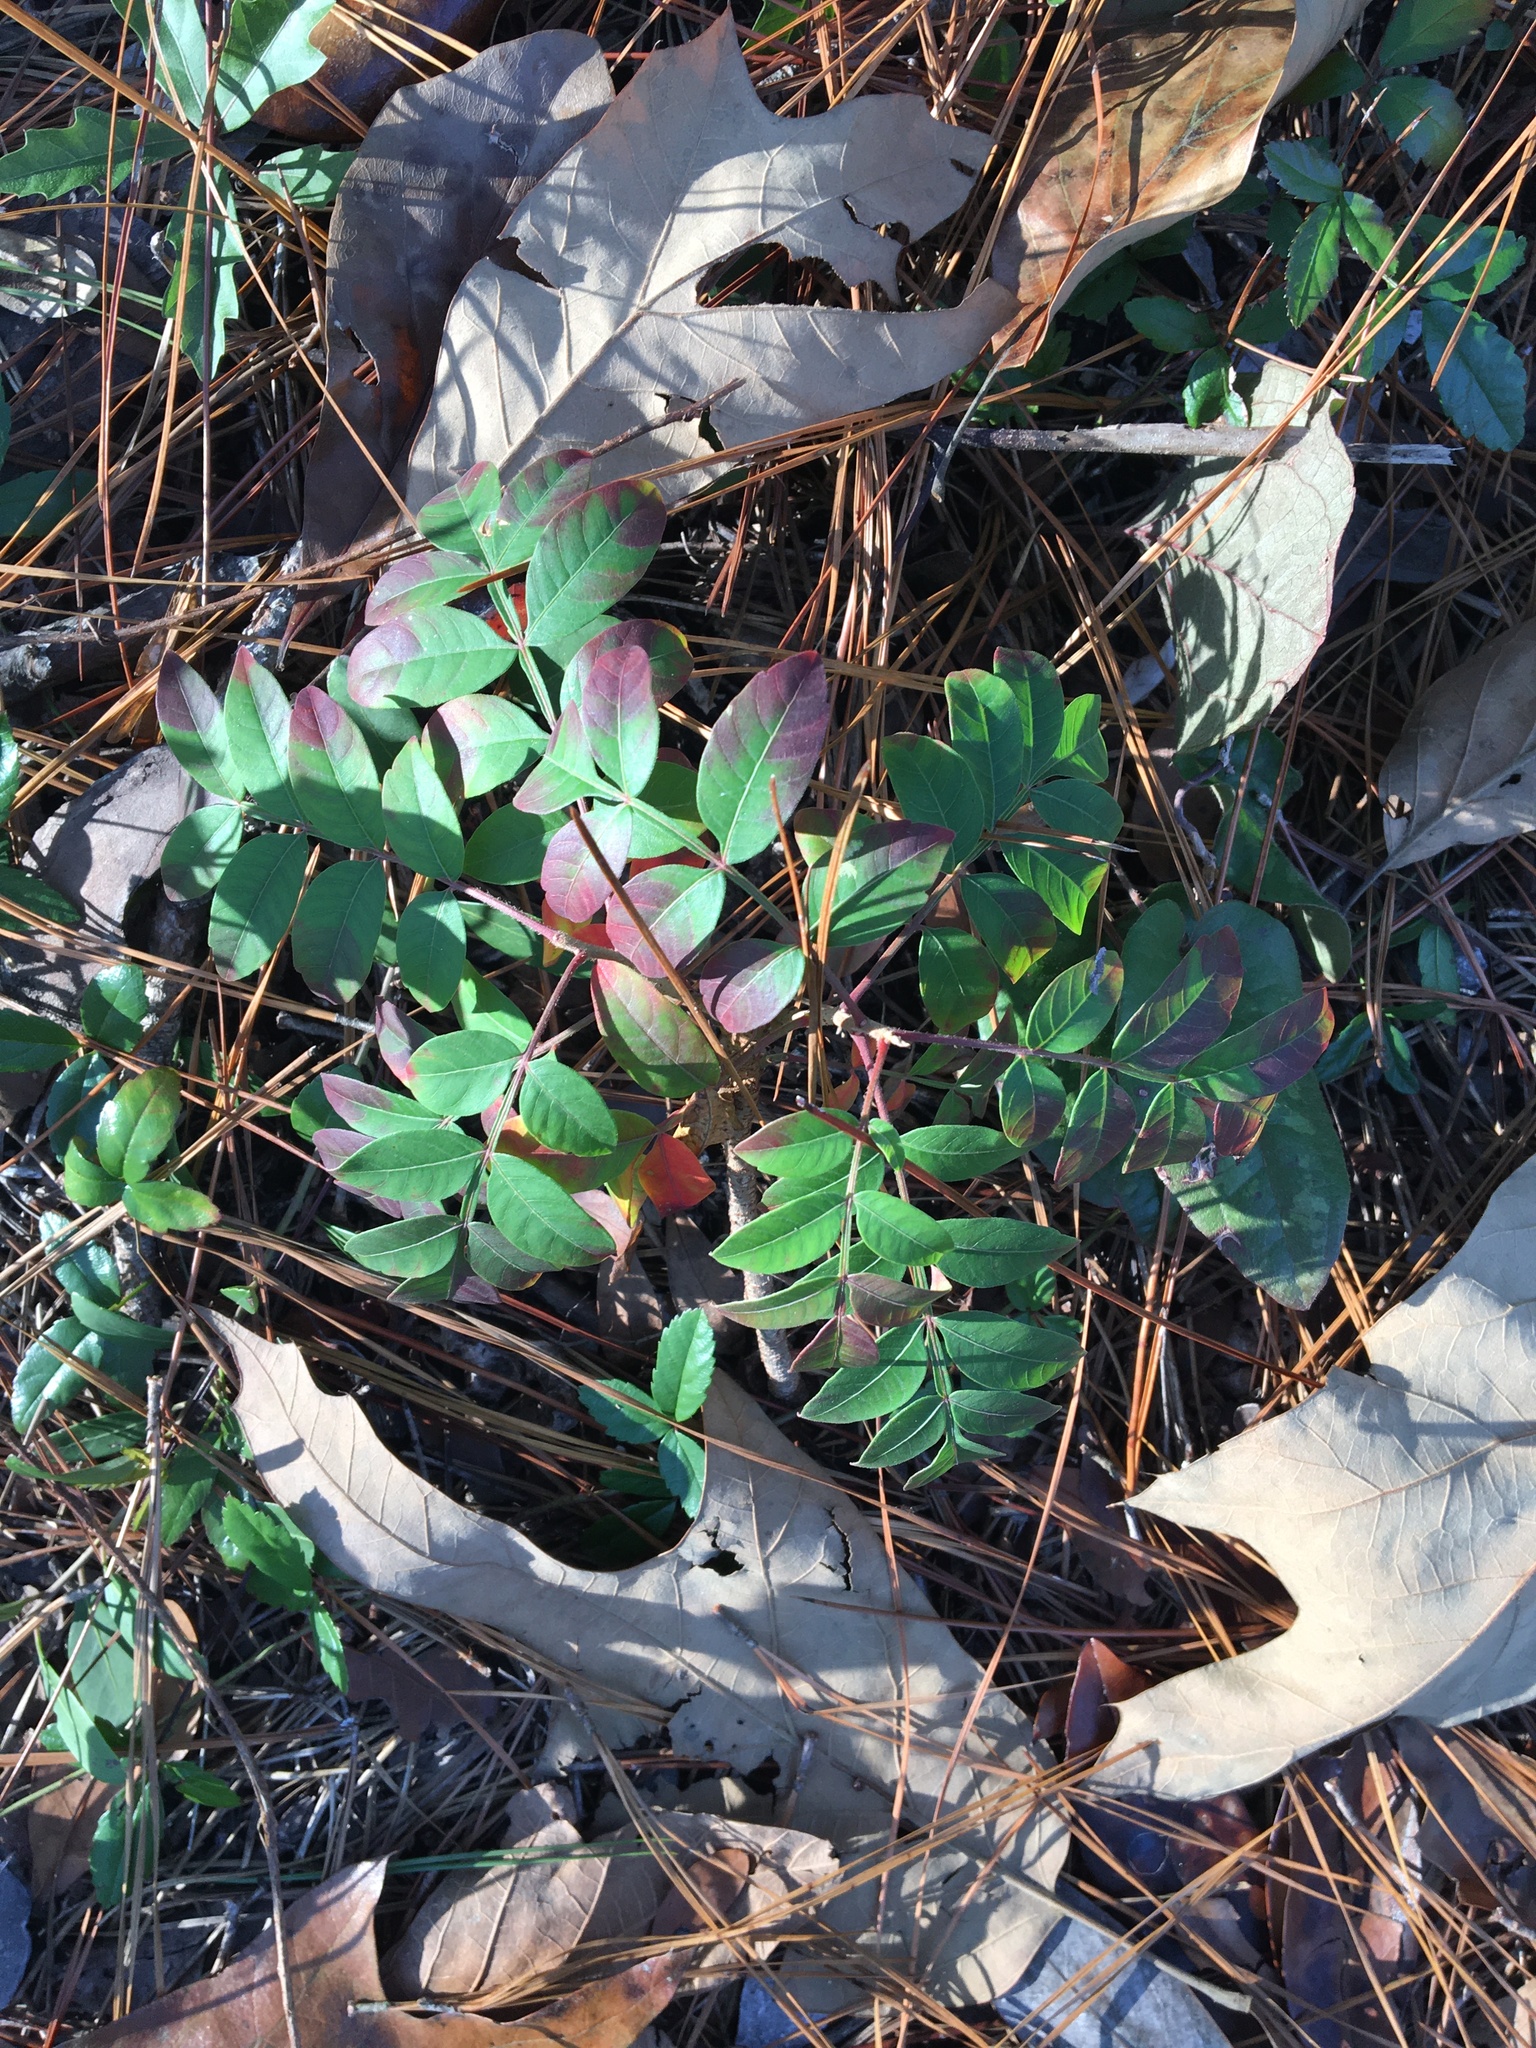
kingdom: Plantae
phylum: Tracheophyta
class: Magnoliopsida
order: Sapindales
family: Anacardiaceae
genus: Rhus
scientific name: Rhus copallina
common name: Shining sumac
